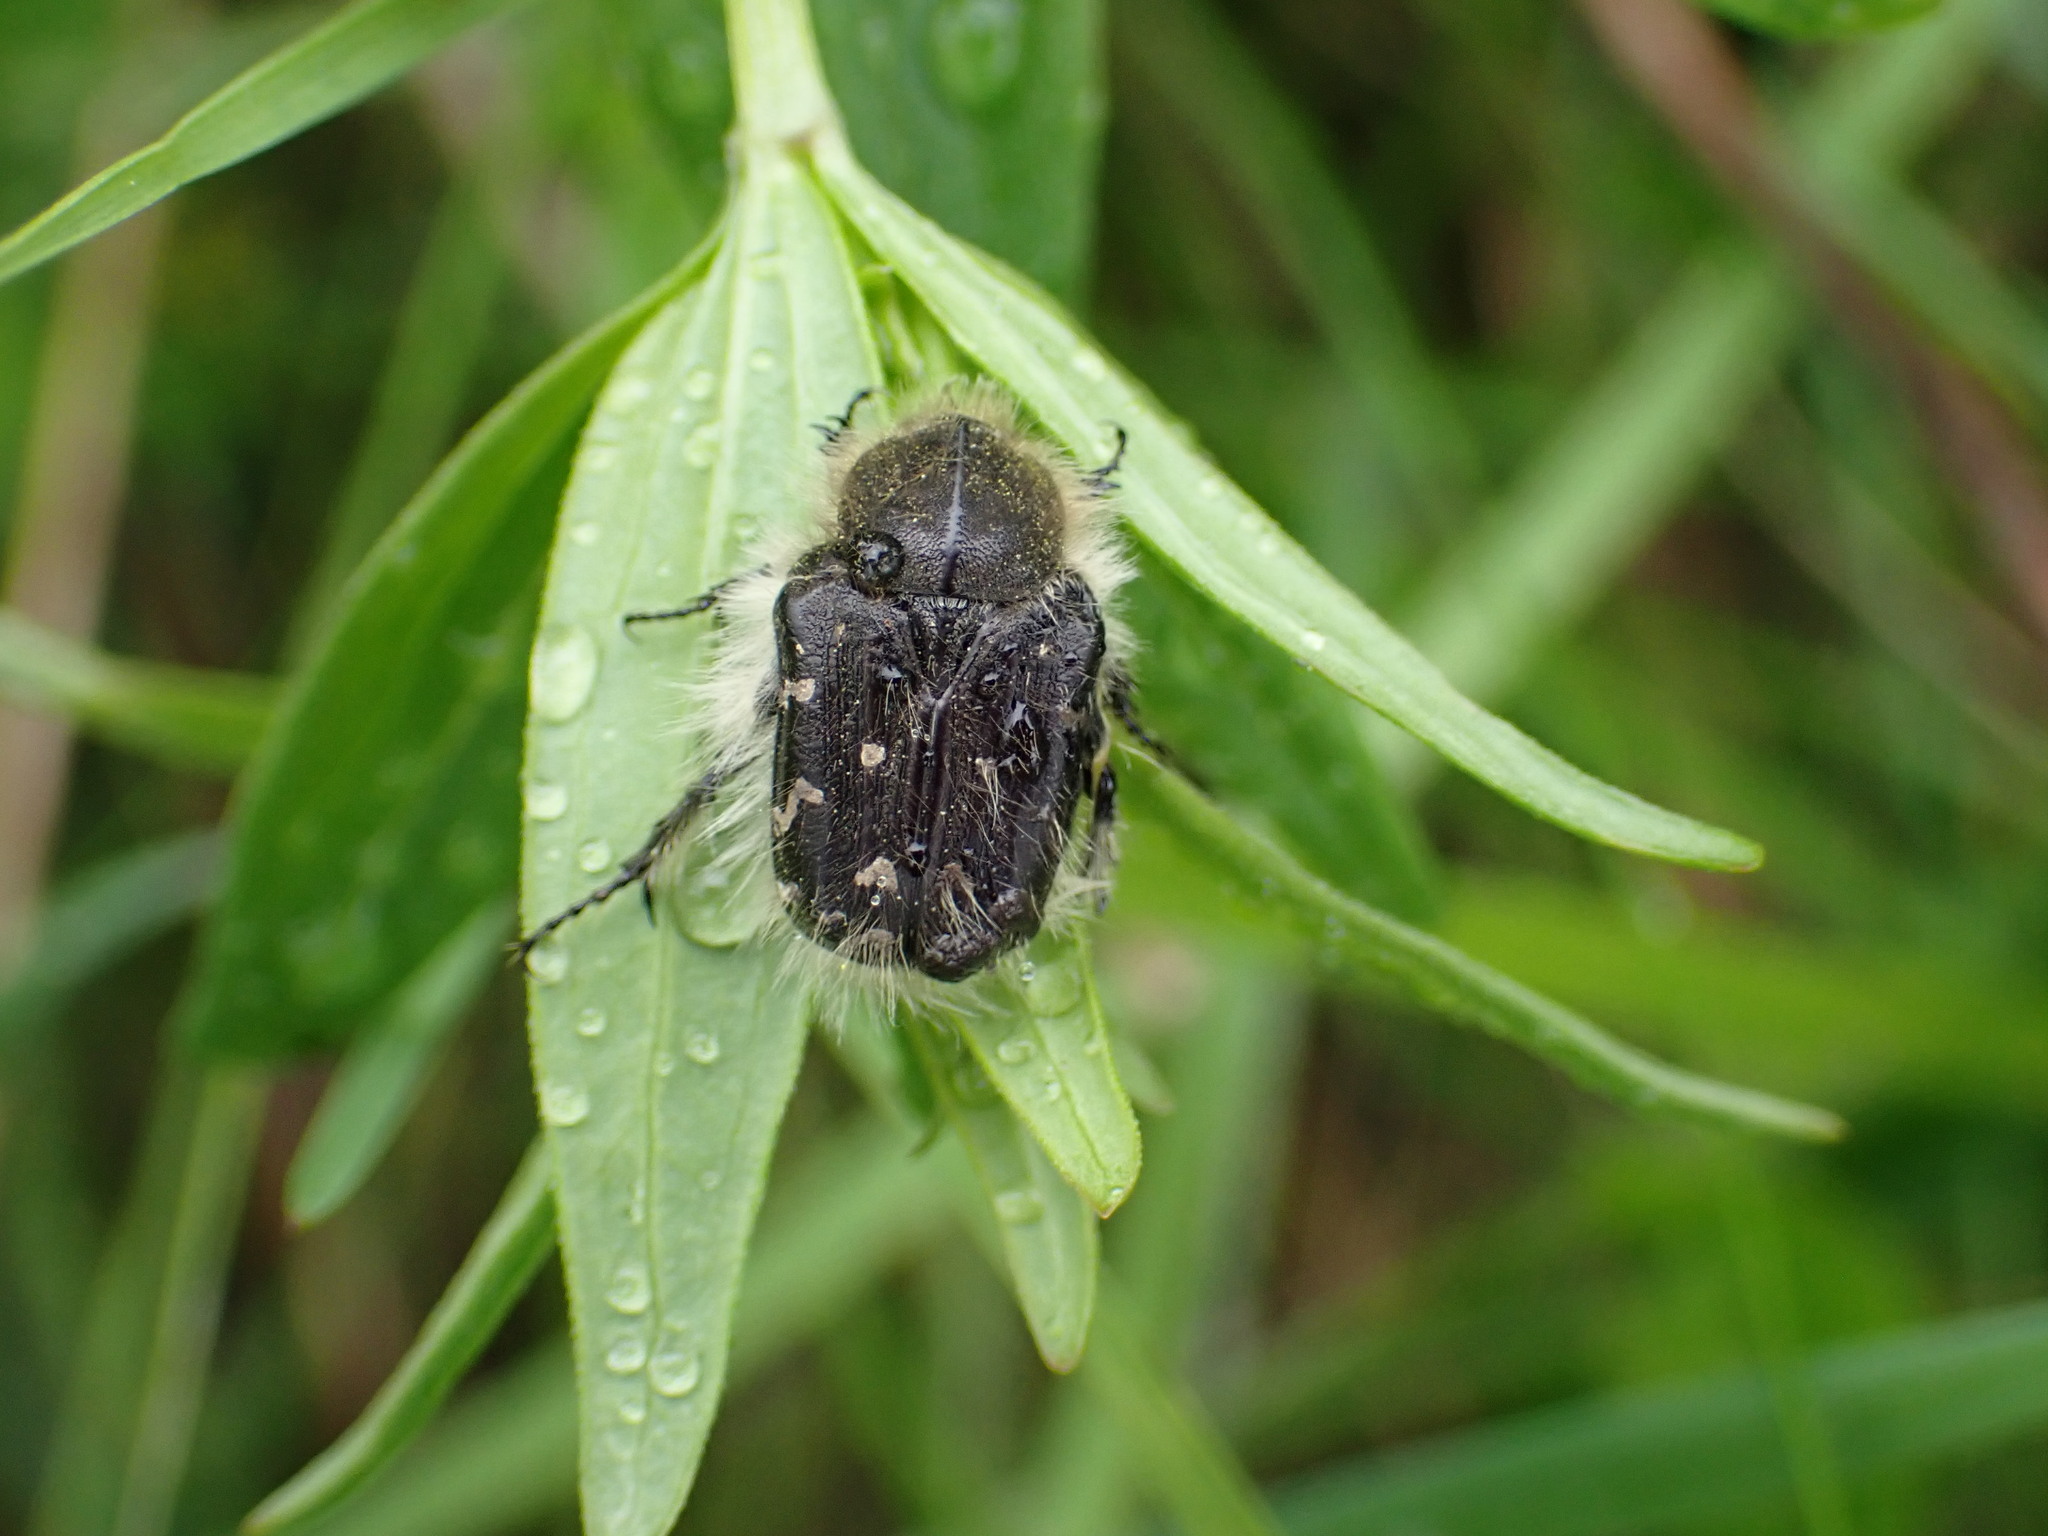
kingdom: Animalia
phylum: Arthropoda
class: Insecta
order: Coleoptera
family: Scarabaeidae
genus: Tropinota
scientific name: Tropinota hirta
